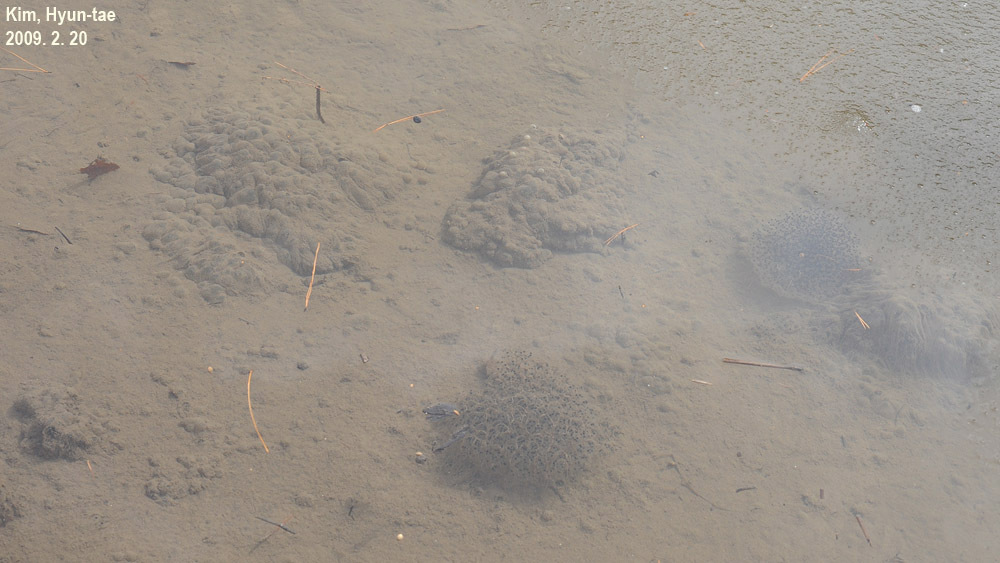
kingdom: Animalia
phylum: Chordata
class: Amphibia
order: Anura
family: Ranidae
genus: Rana
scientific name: Rana uenoi
